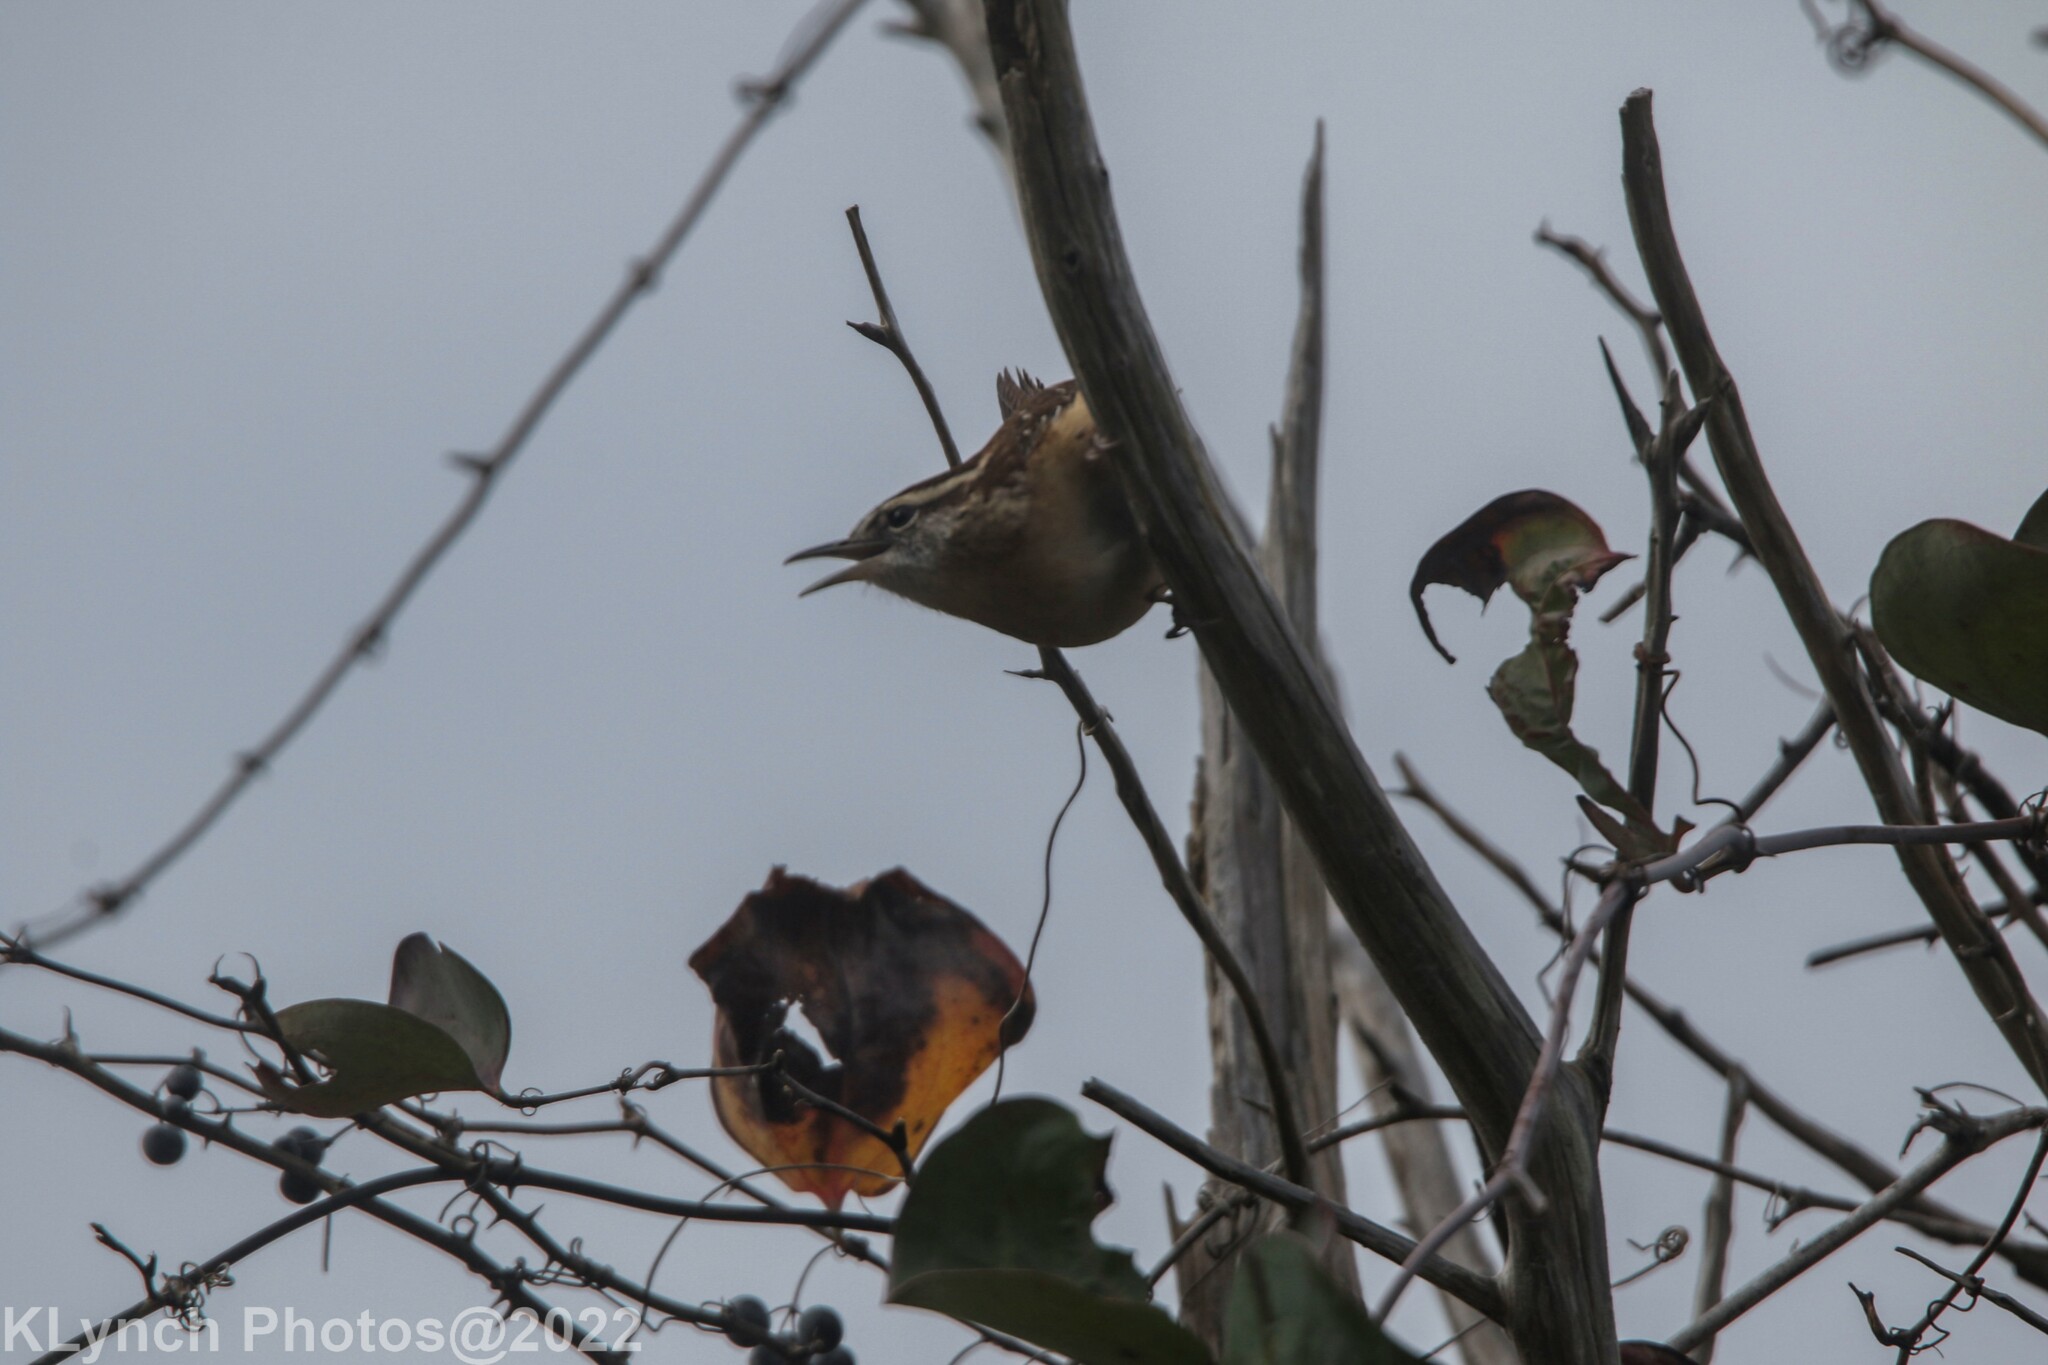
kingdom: Animalia
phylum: Chordata
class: Aves
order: Passeriformes
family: Troglodytidae
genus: Thryothorus
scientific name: Thryothorus ludovicianus
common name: Carolina wren
